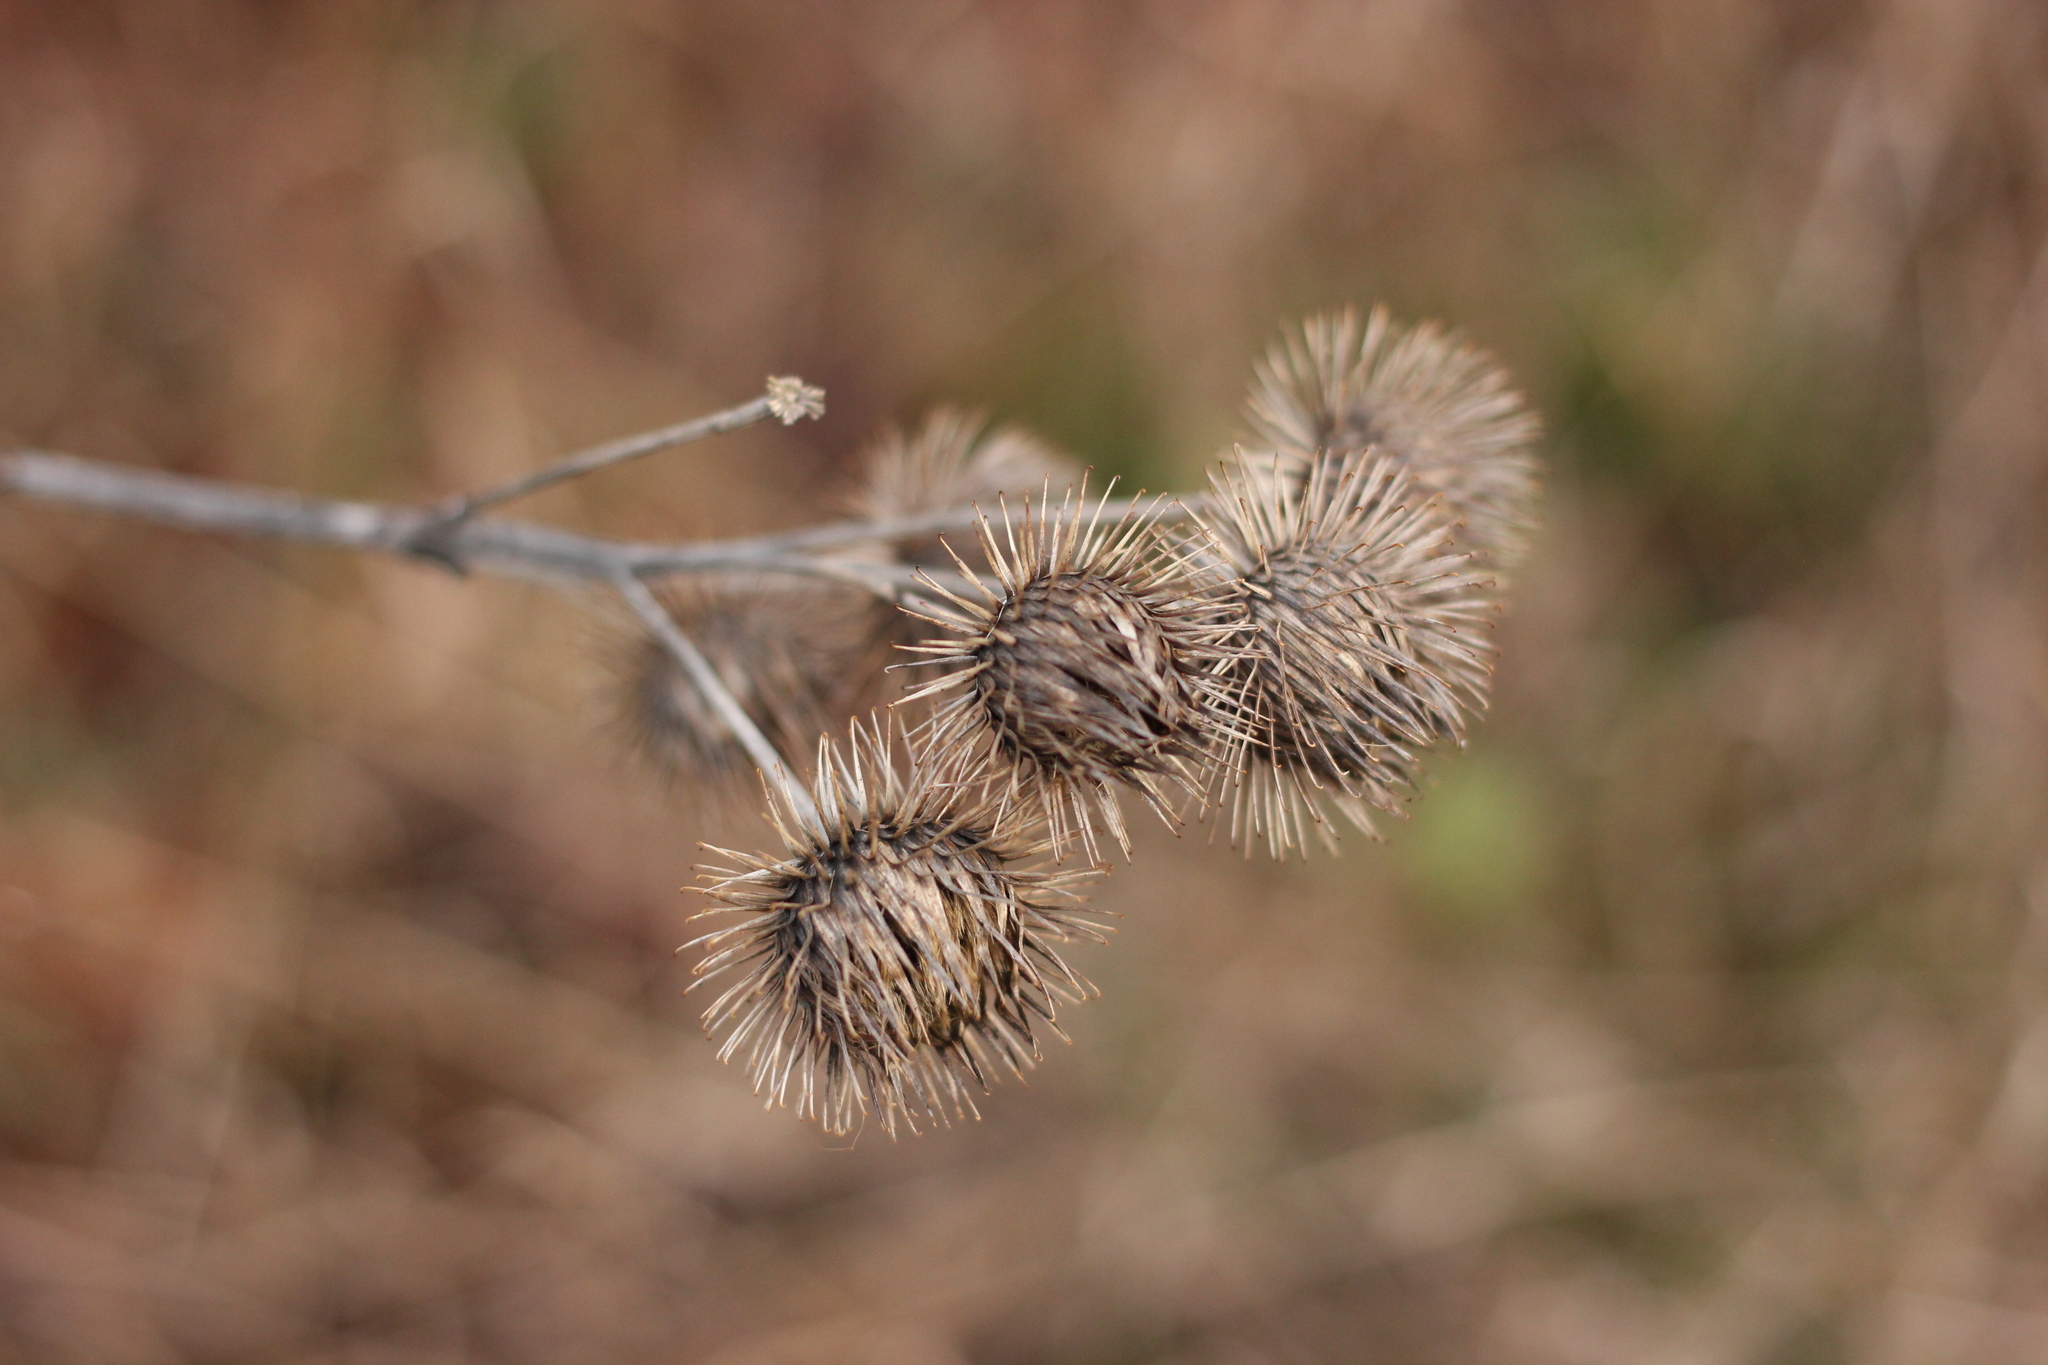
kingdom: Plantae
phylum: Tracheophyta
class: Magnoliopsida
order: Asterales
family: Asteraceae
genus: Arctium
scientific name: Arctium lappa
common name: Greater burdock
